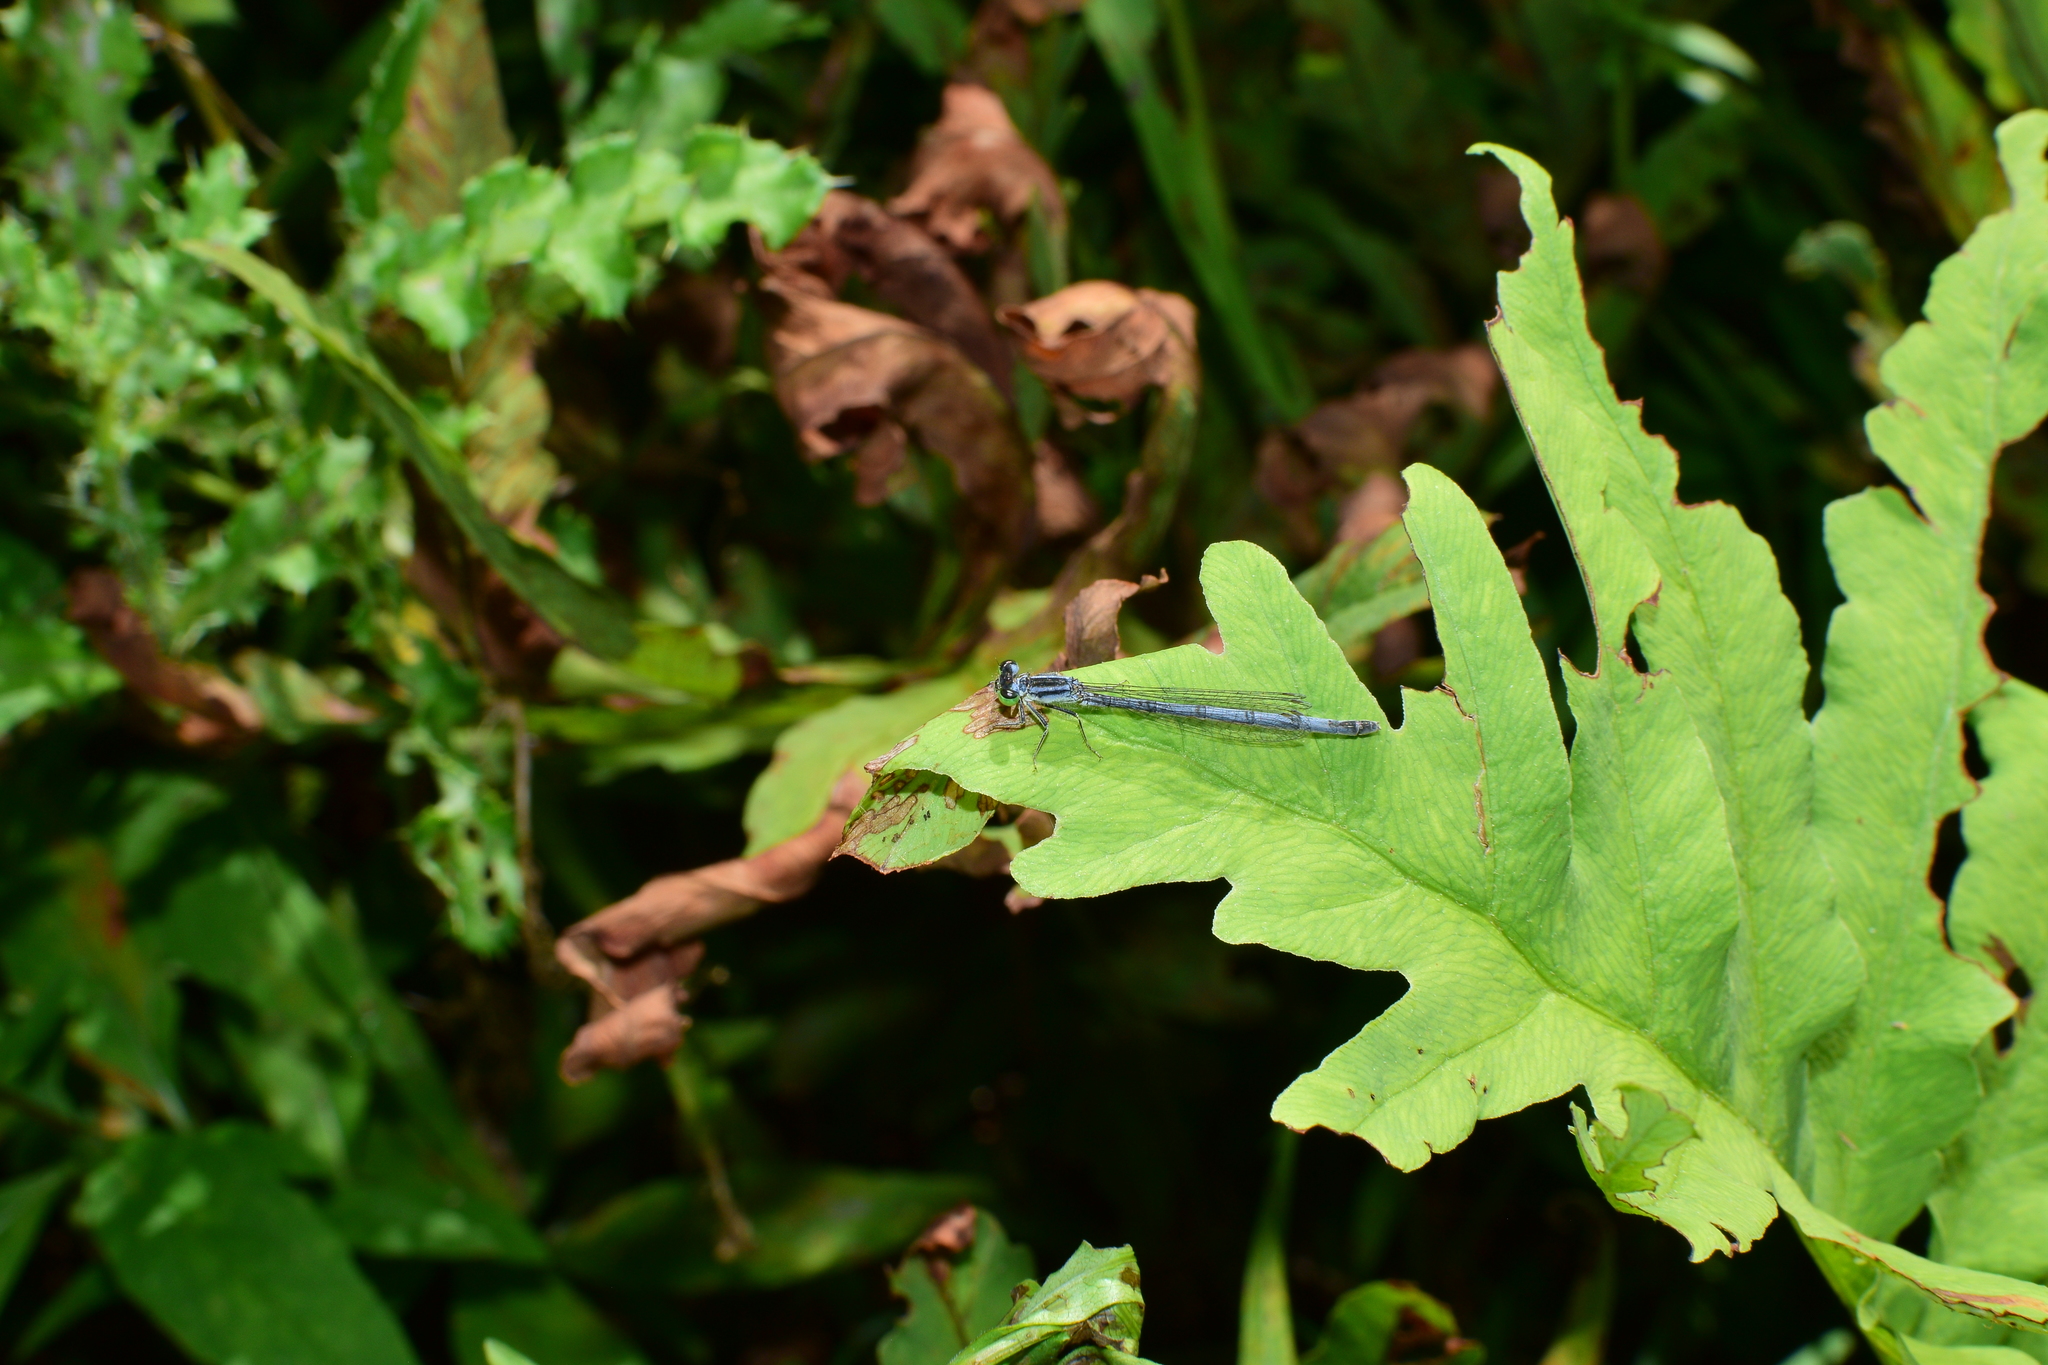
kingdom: Animalia
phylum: Arthropoda
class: Insecta
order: Odonata
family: Coenagrionidae
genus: Ischnura
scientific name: Ischnura verticalis
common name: Eastern forktail
